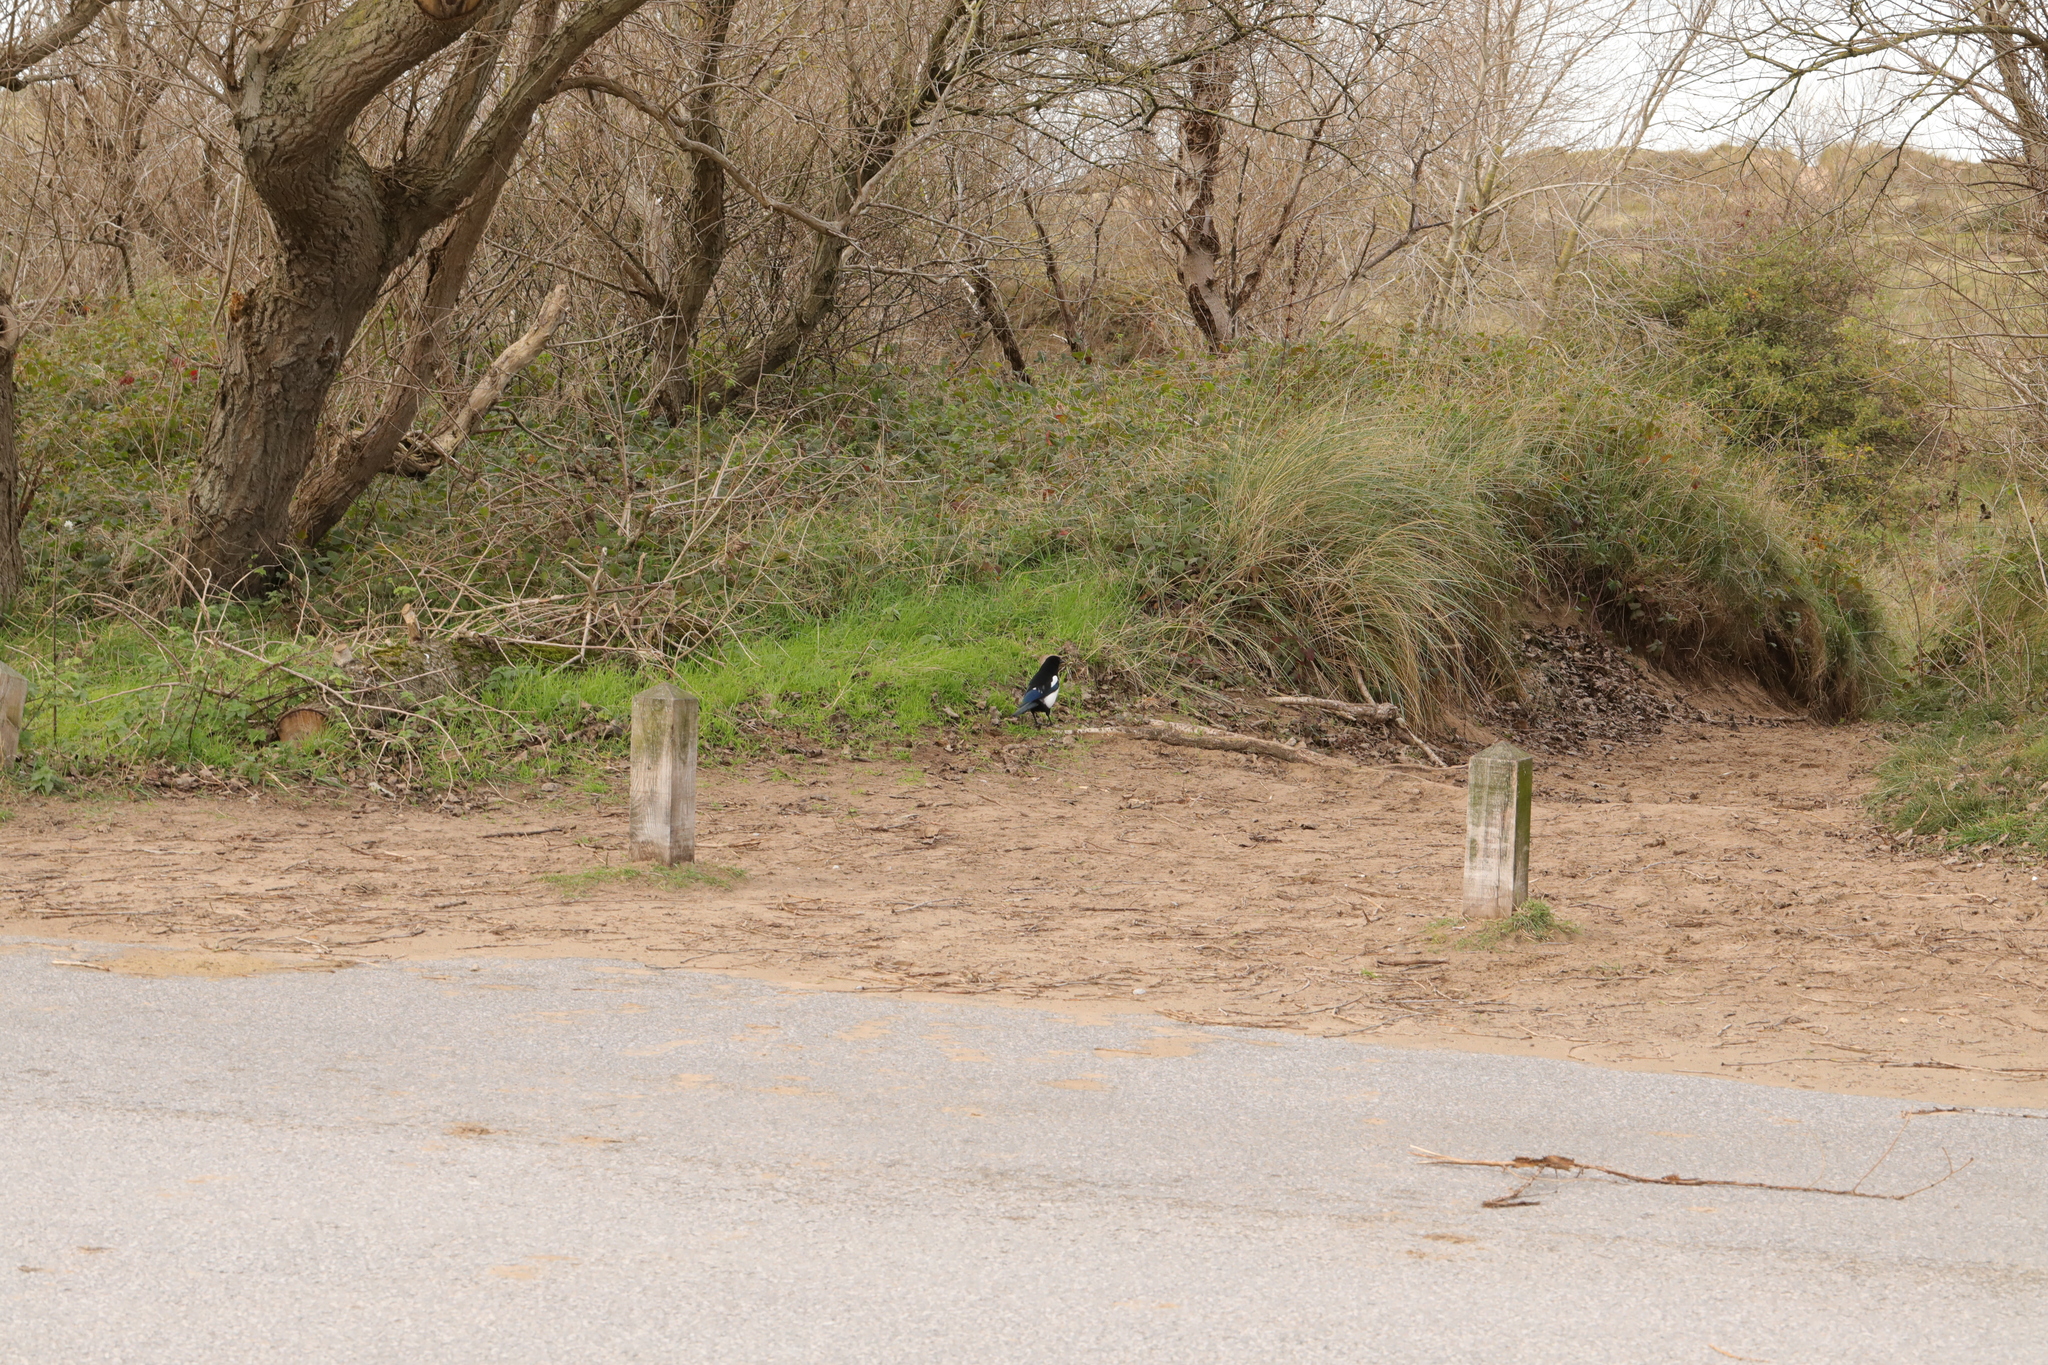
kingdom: Animalia
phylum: Chordata
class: Aves
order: Passeriformes
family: Corvidae
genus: Pica
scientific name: Pica pica
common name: Eurasian magpie
